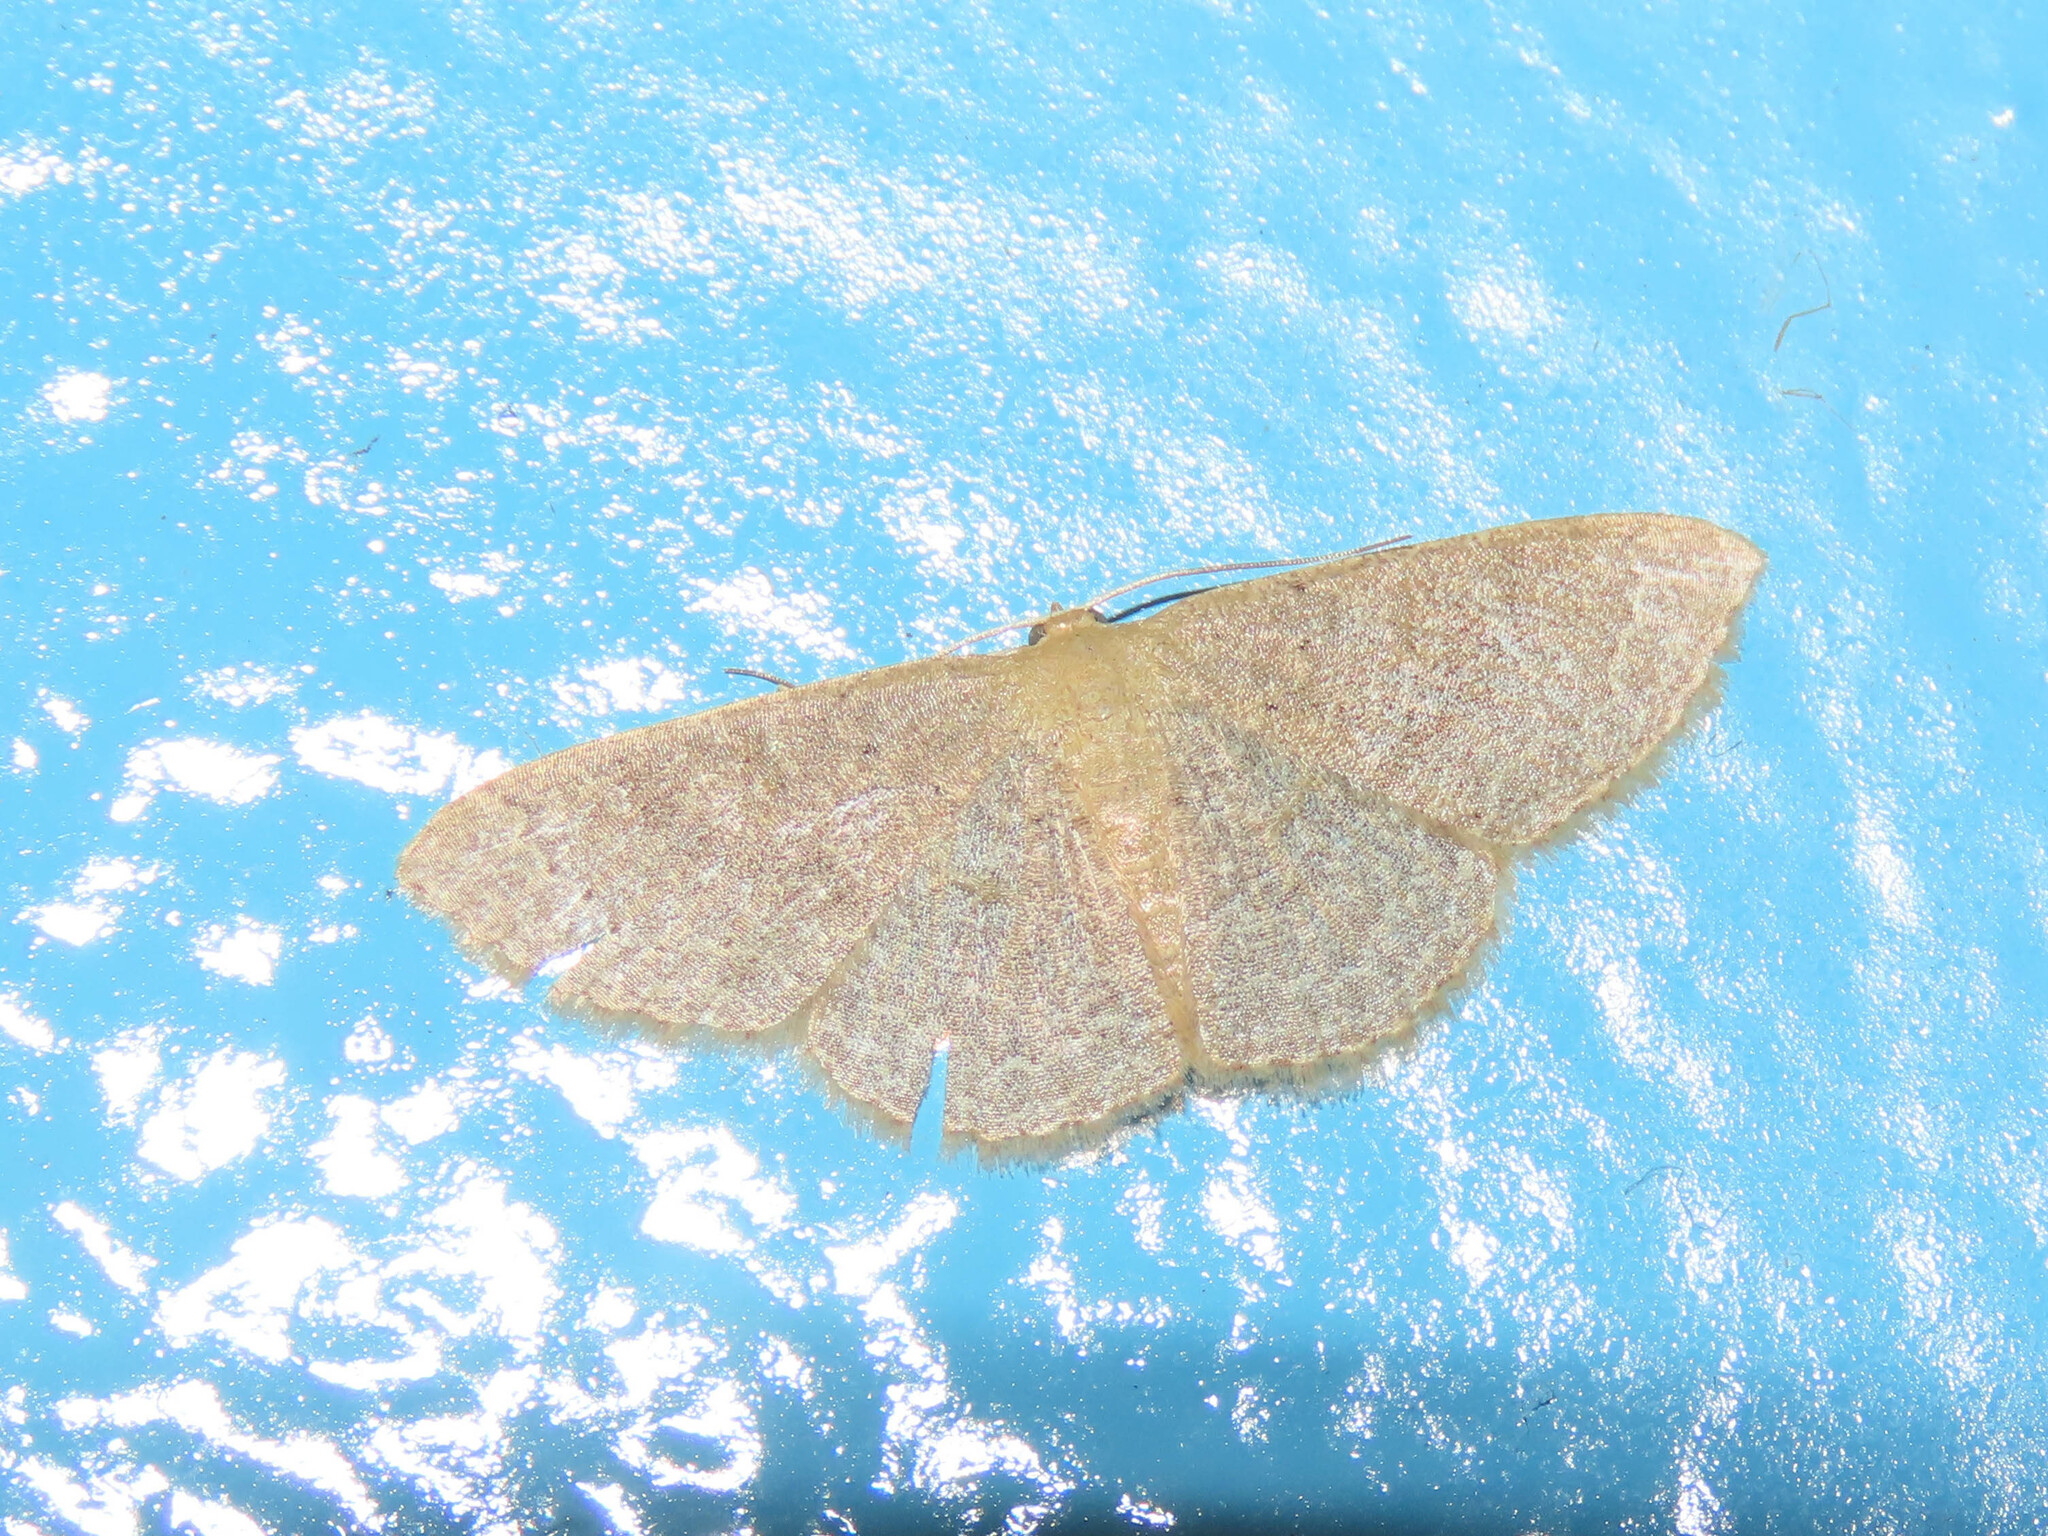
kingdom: Animalia
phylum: Arthropoda
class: Insecta
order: Lepidoptera
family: Geometridae
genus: Pleuroprucha
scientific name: Pleuroprucha insulsaria
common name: Common tan wave
